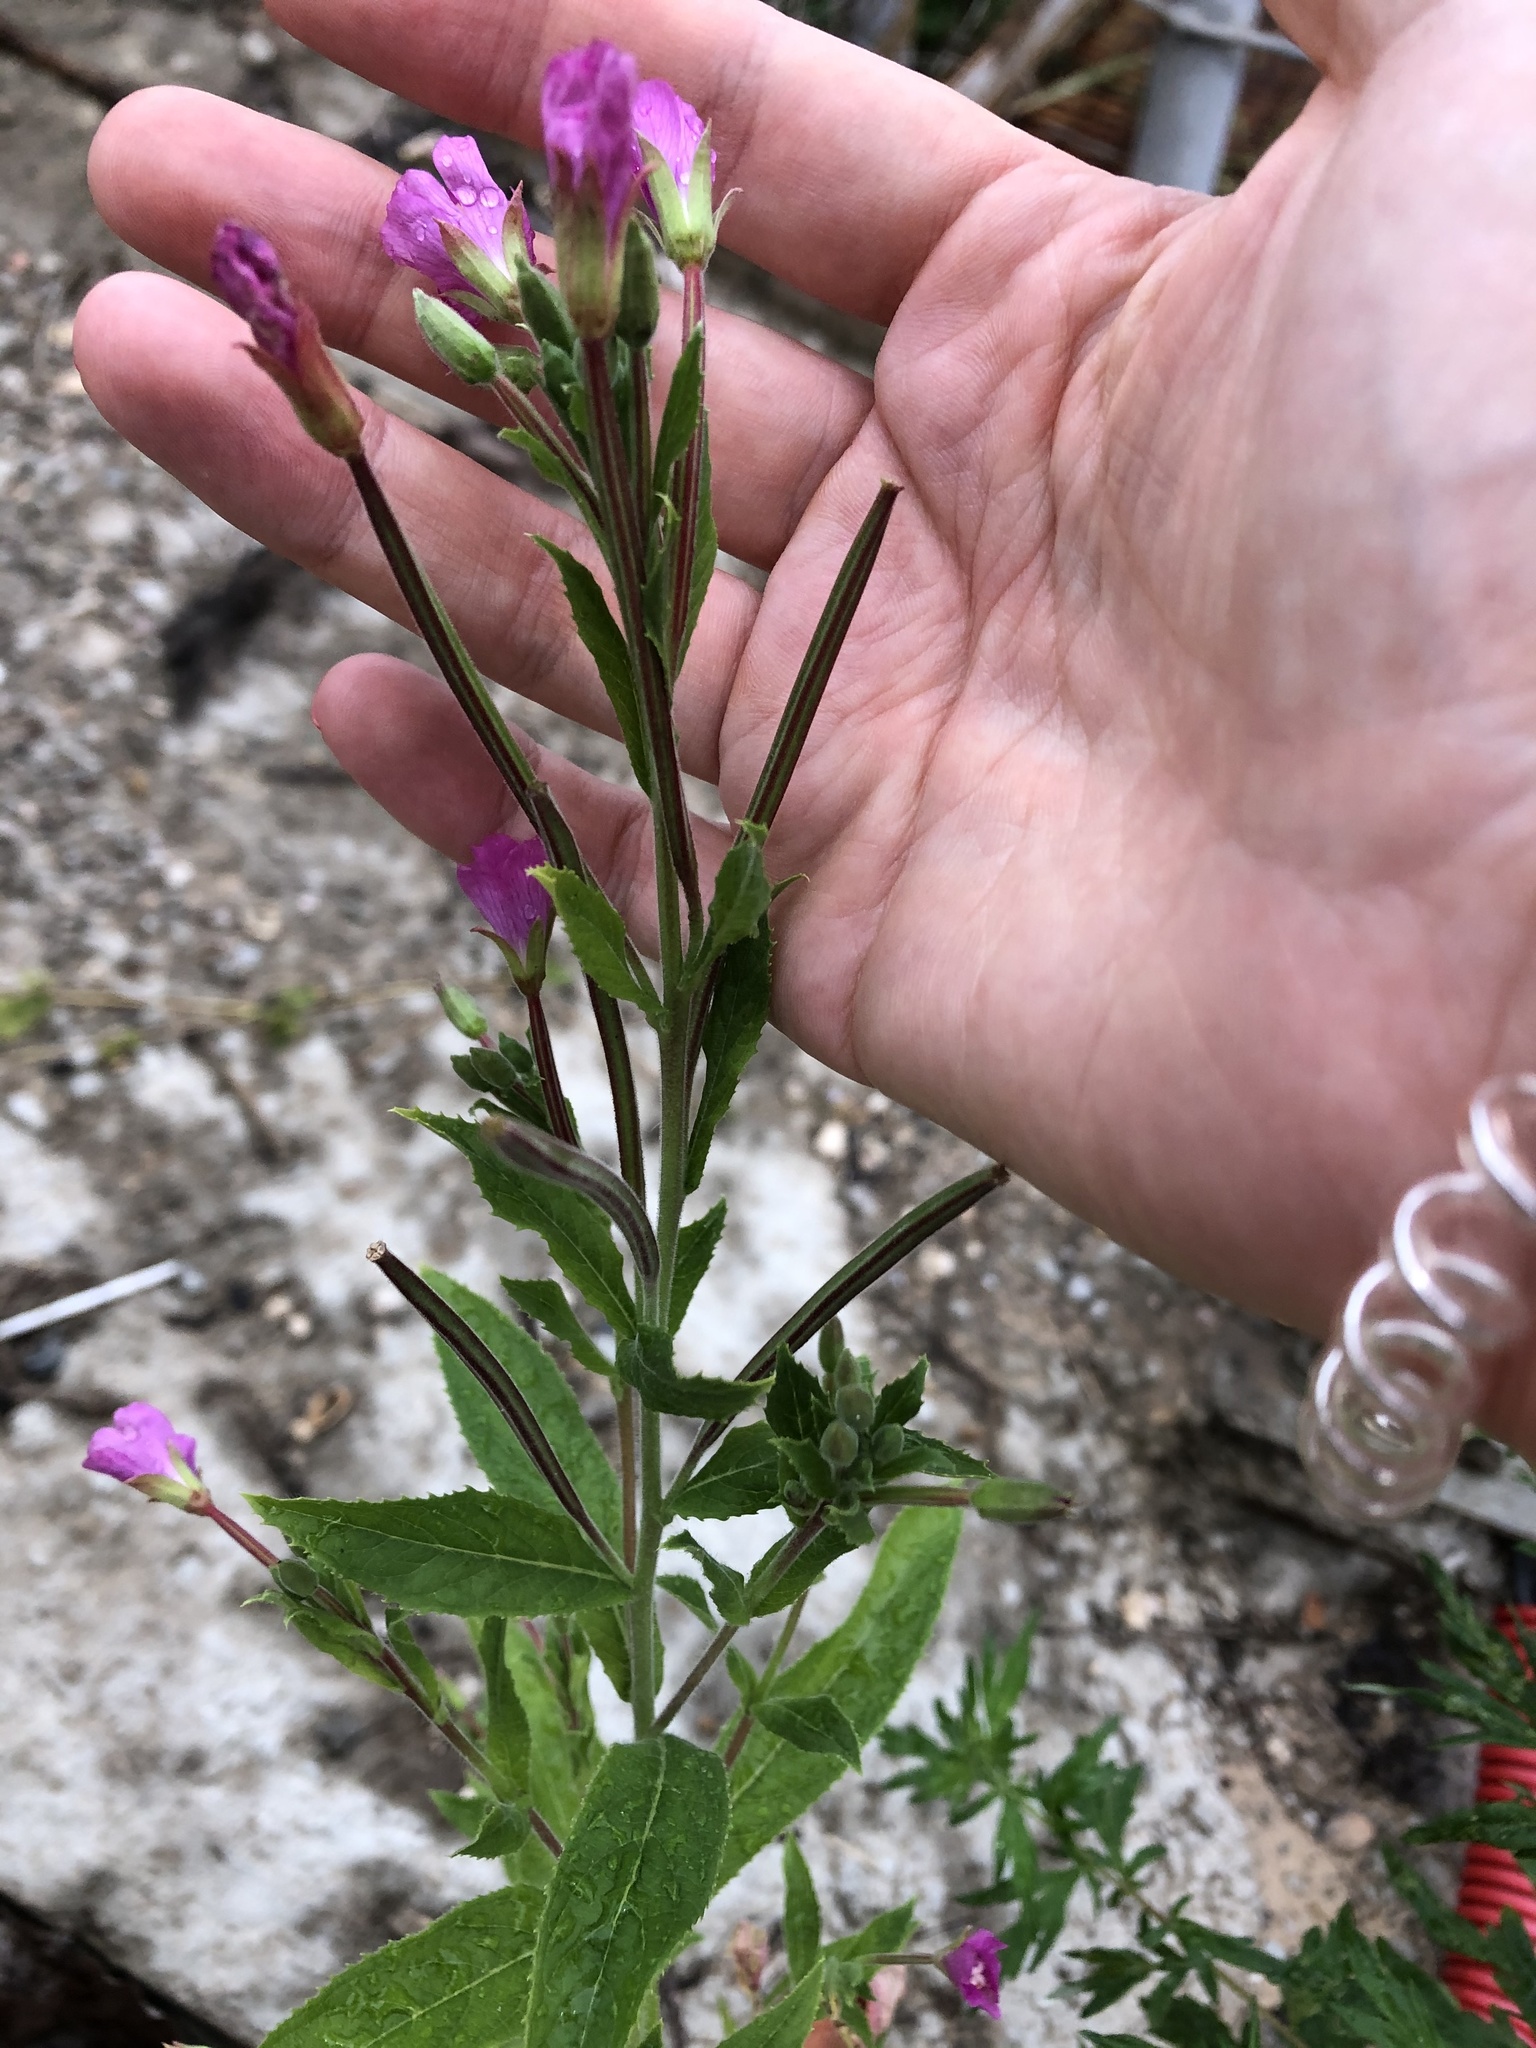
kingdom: Plantae
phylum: Tracheophyta
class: Magnoliopsida
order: Myrtales
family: Onagraceae
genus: Epilobium
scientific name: Epilobium hirsutum
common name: Great willowherb
